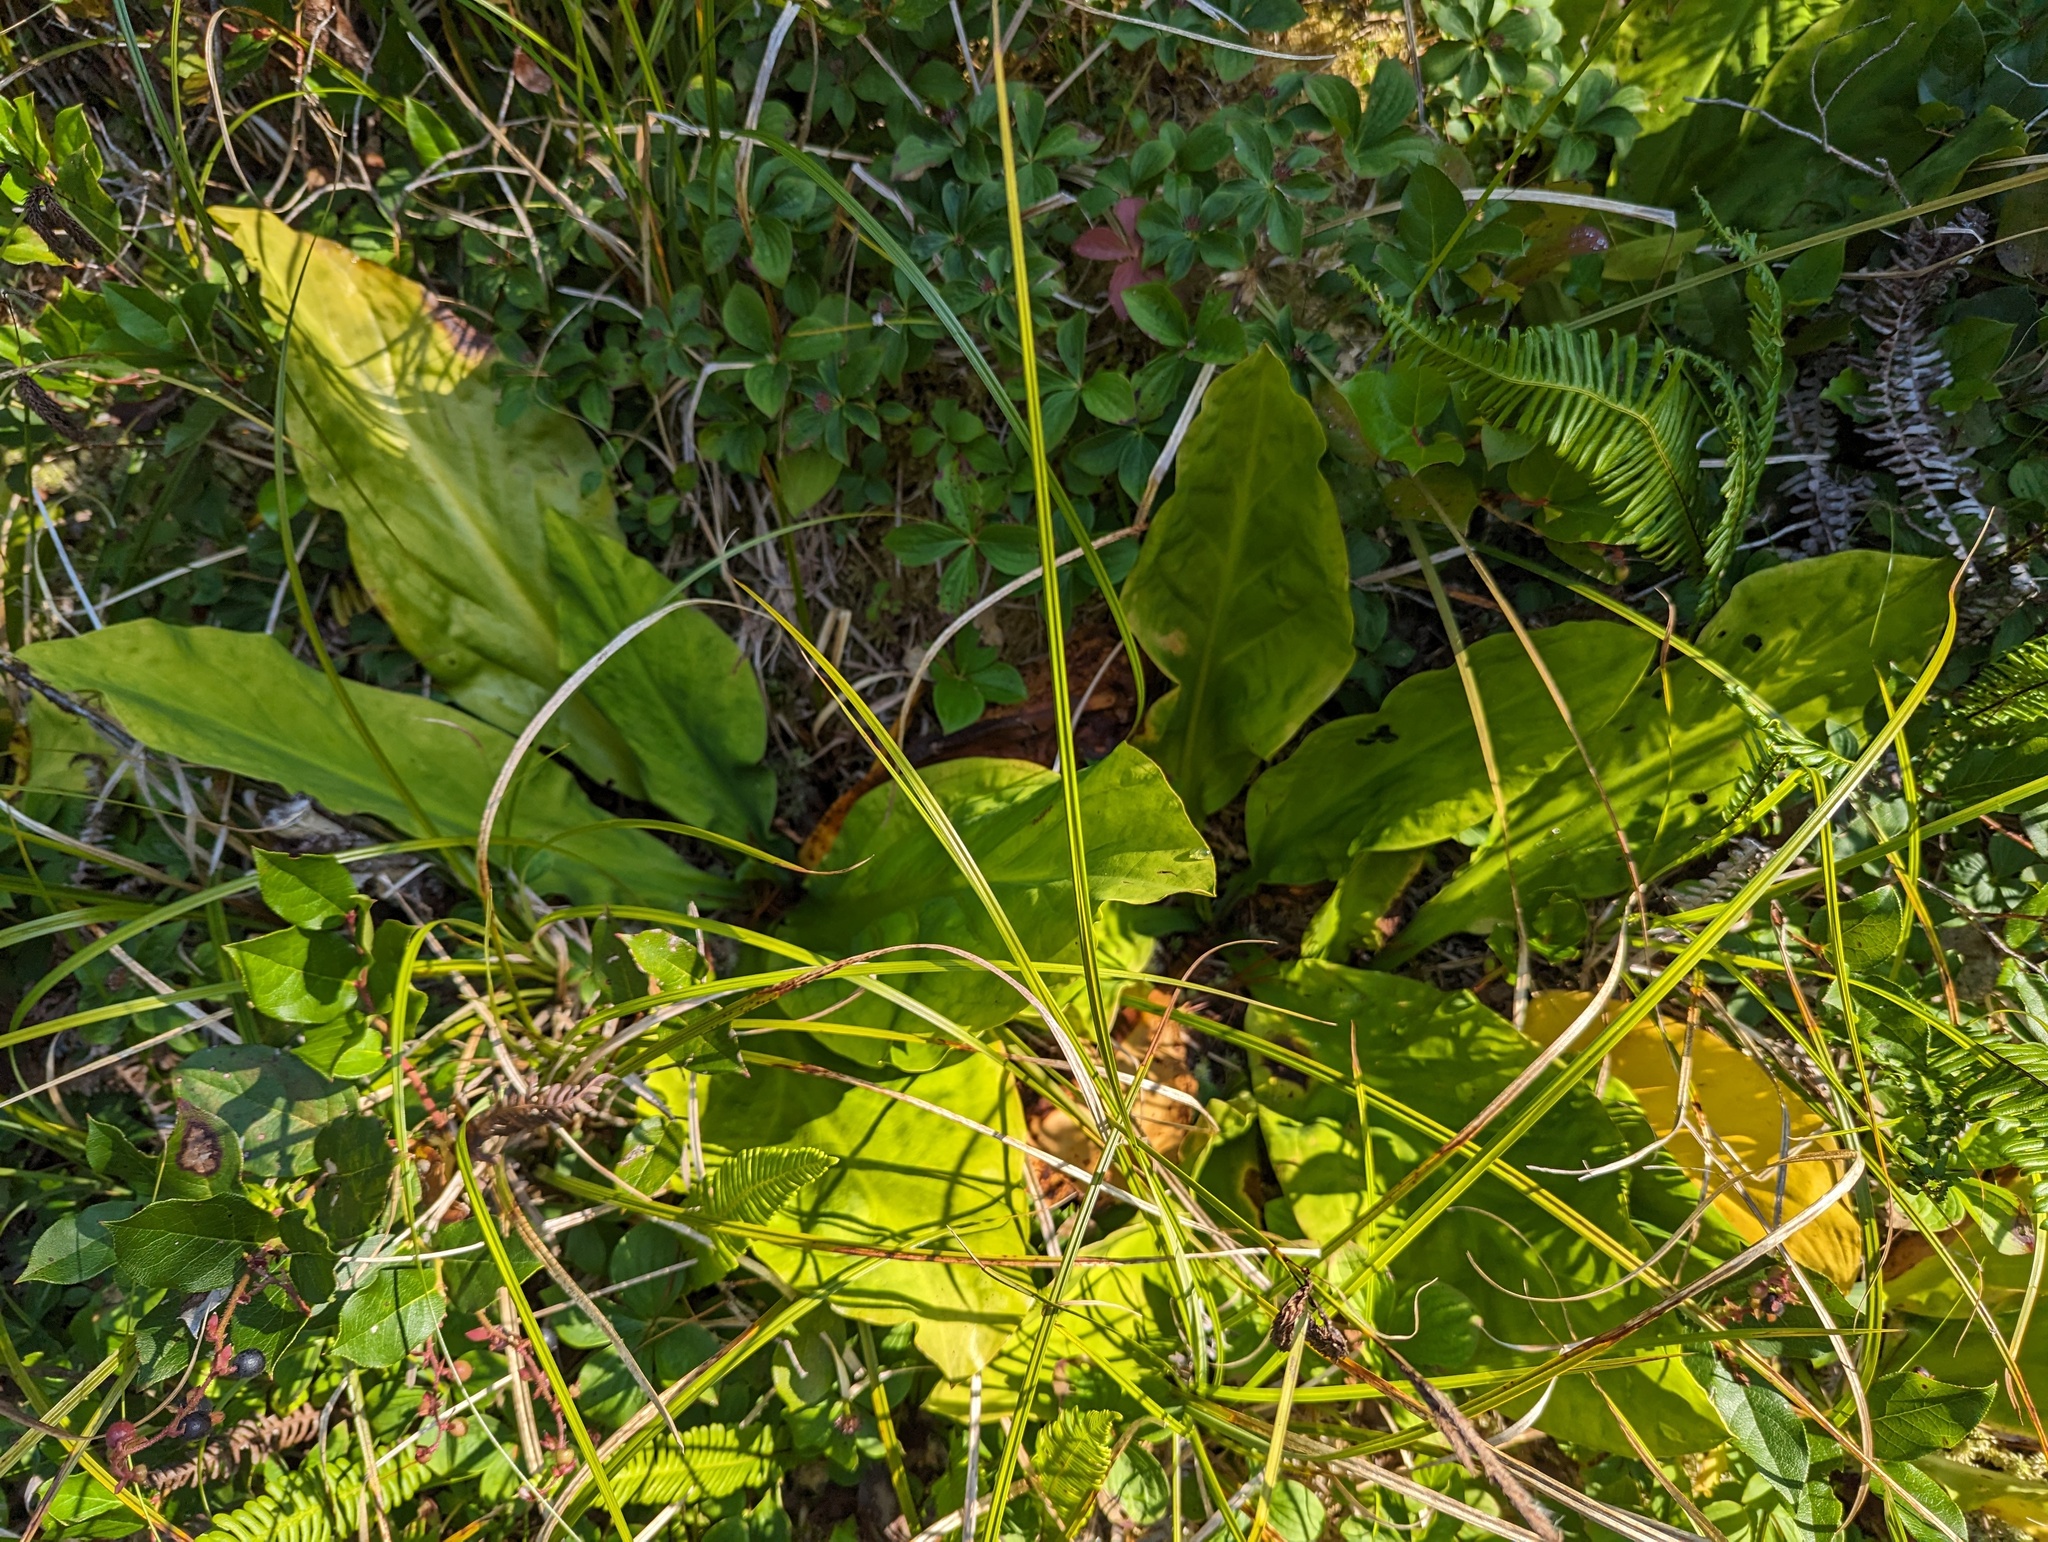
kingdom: Plantae
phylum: Tracheophyta
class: Liliopsida
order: Alismatales
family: Araceae
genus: Lysichiton
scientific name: Lysichiton americanus
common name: American skunk cabbage
